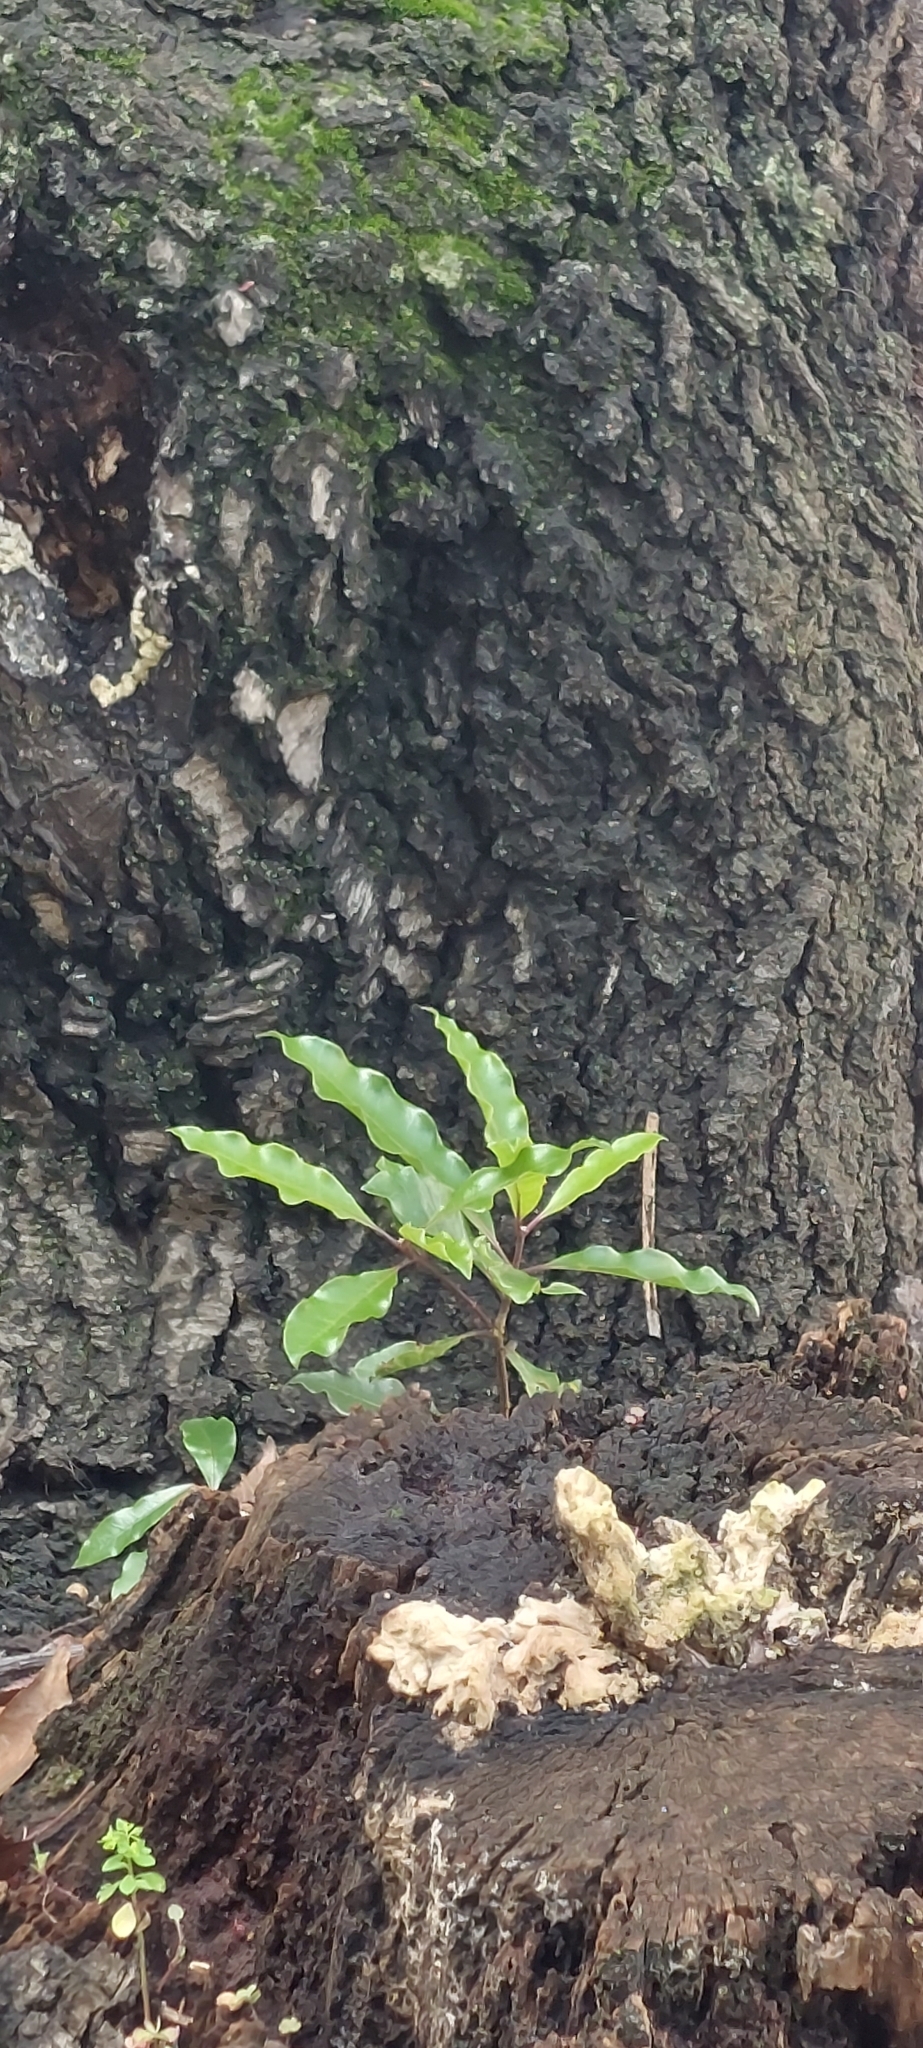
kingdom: Plantae
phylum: Tracheophyta
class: Magnoliopsida
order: Apiales
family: Pittosporaceae
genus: Pittosporum
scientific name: Pittosporum undulatum
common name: Australian cheesewood
